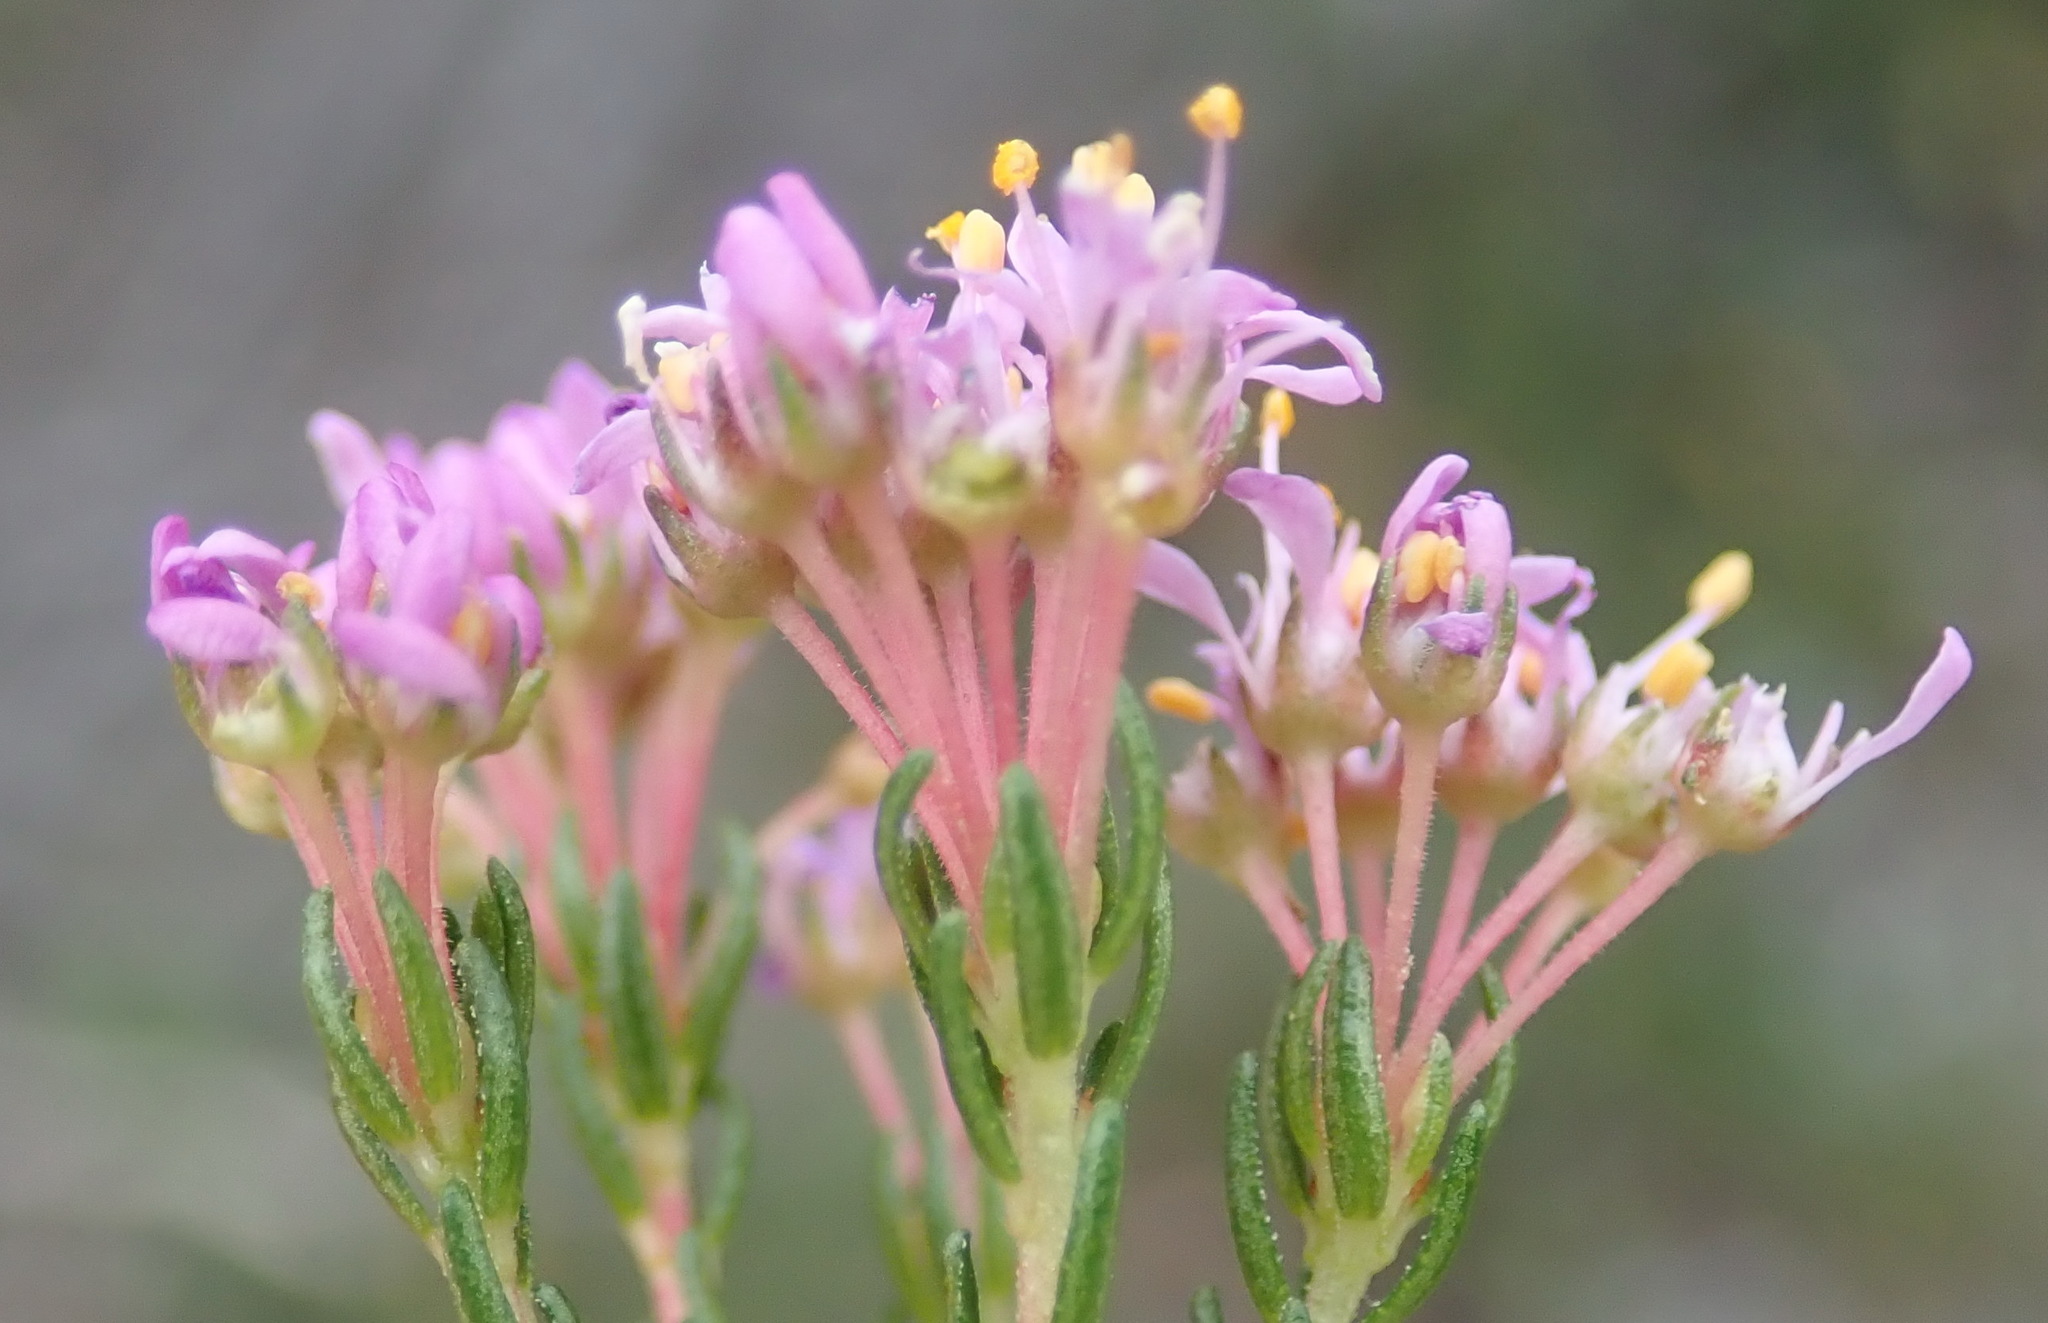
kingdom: Plantae
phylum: Tracheophyta
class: Magnoliopsida
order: Sapindales
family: Rutaceae
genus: Agathosma
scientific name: Agathosma serpyllacea
